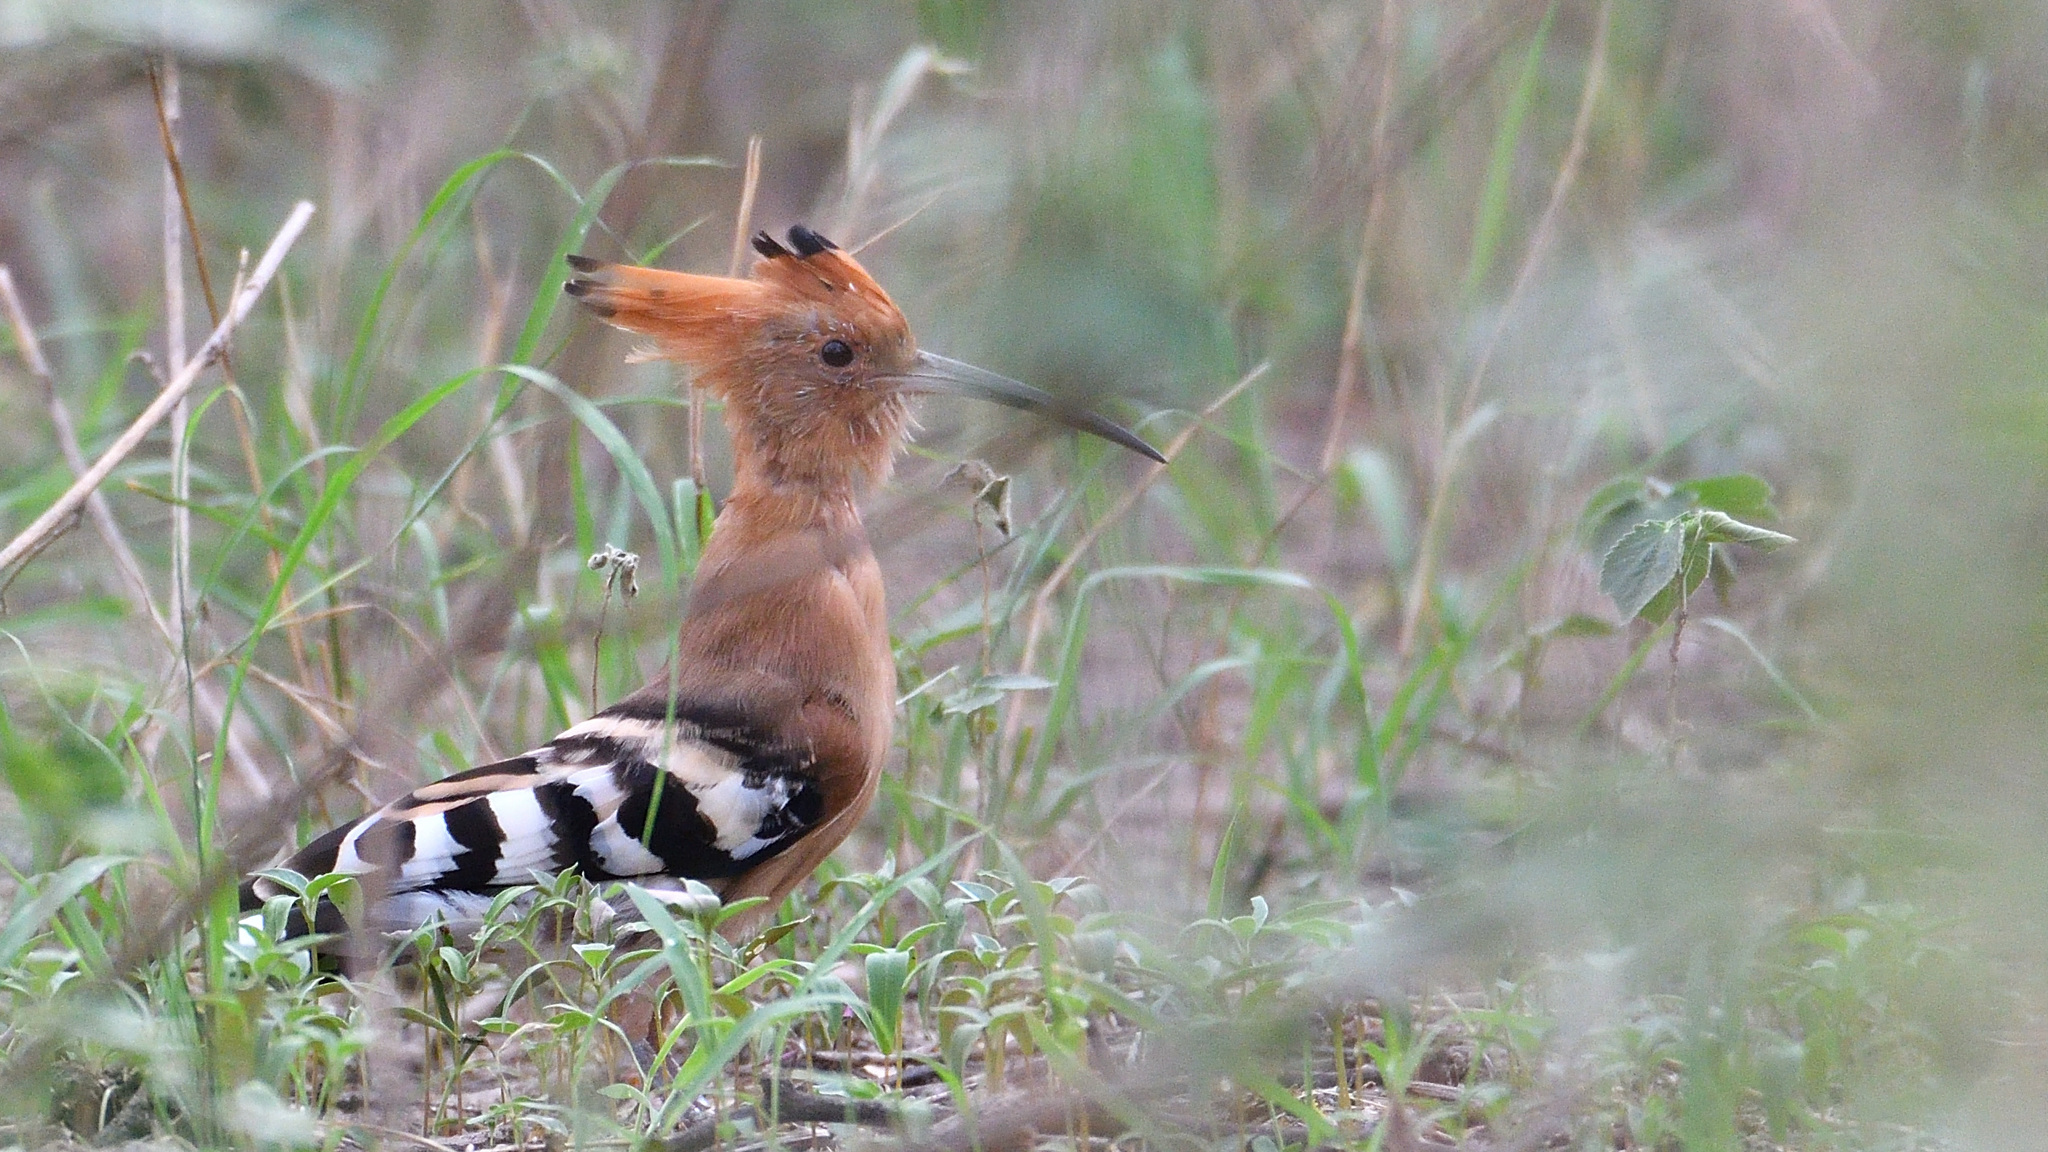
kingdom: Animalia
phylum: Chordata
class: Aves
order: Bucerotiformes
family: Upupidae
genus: Upupa
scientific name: Upupa epops
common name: Eurasian hoopoe
